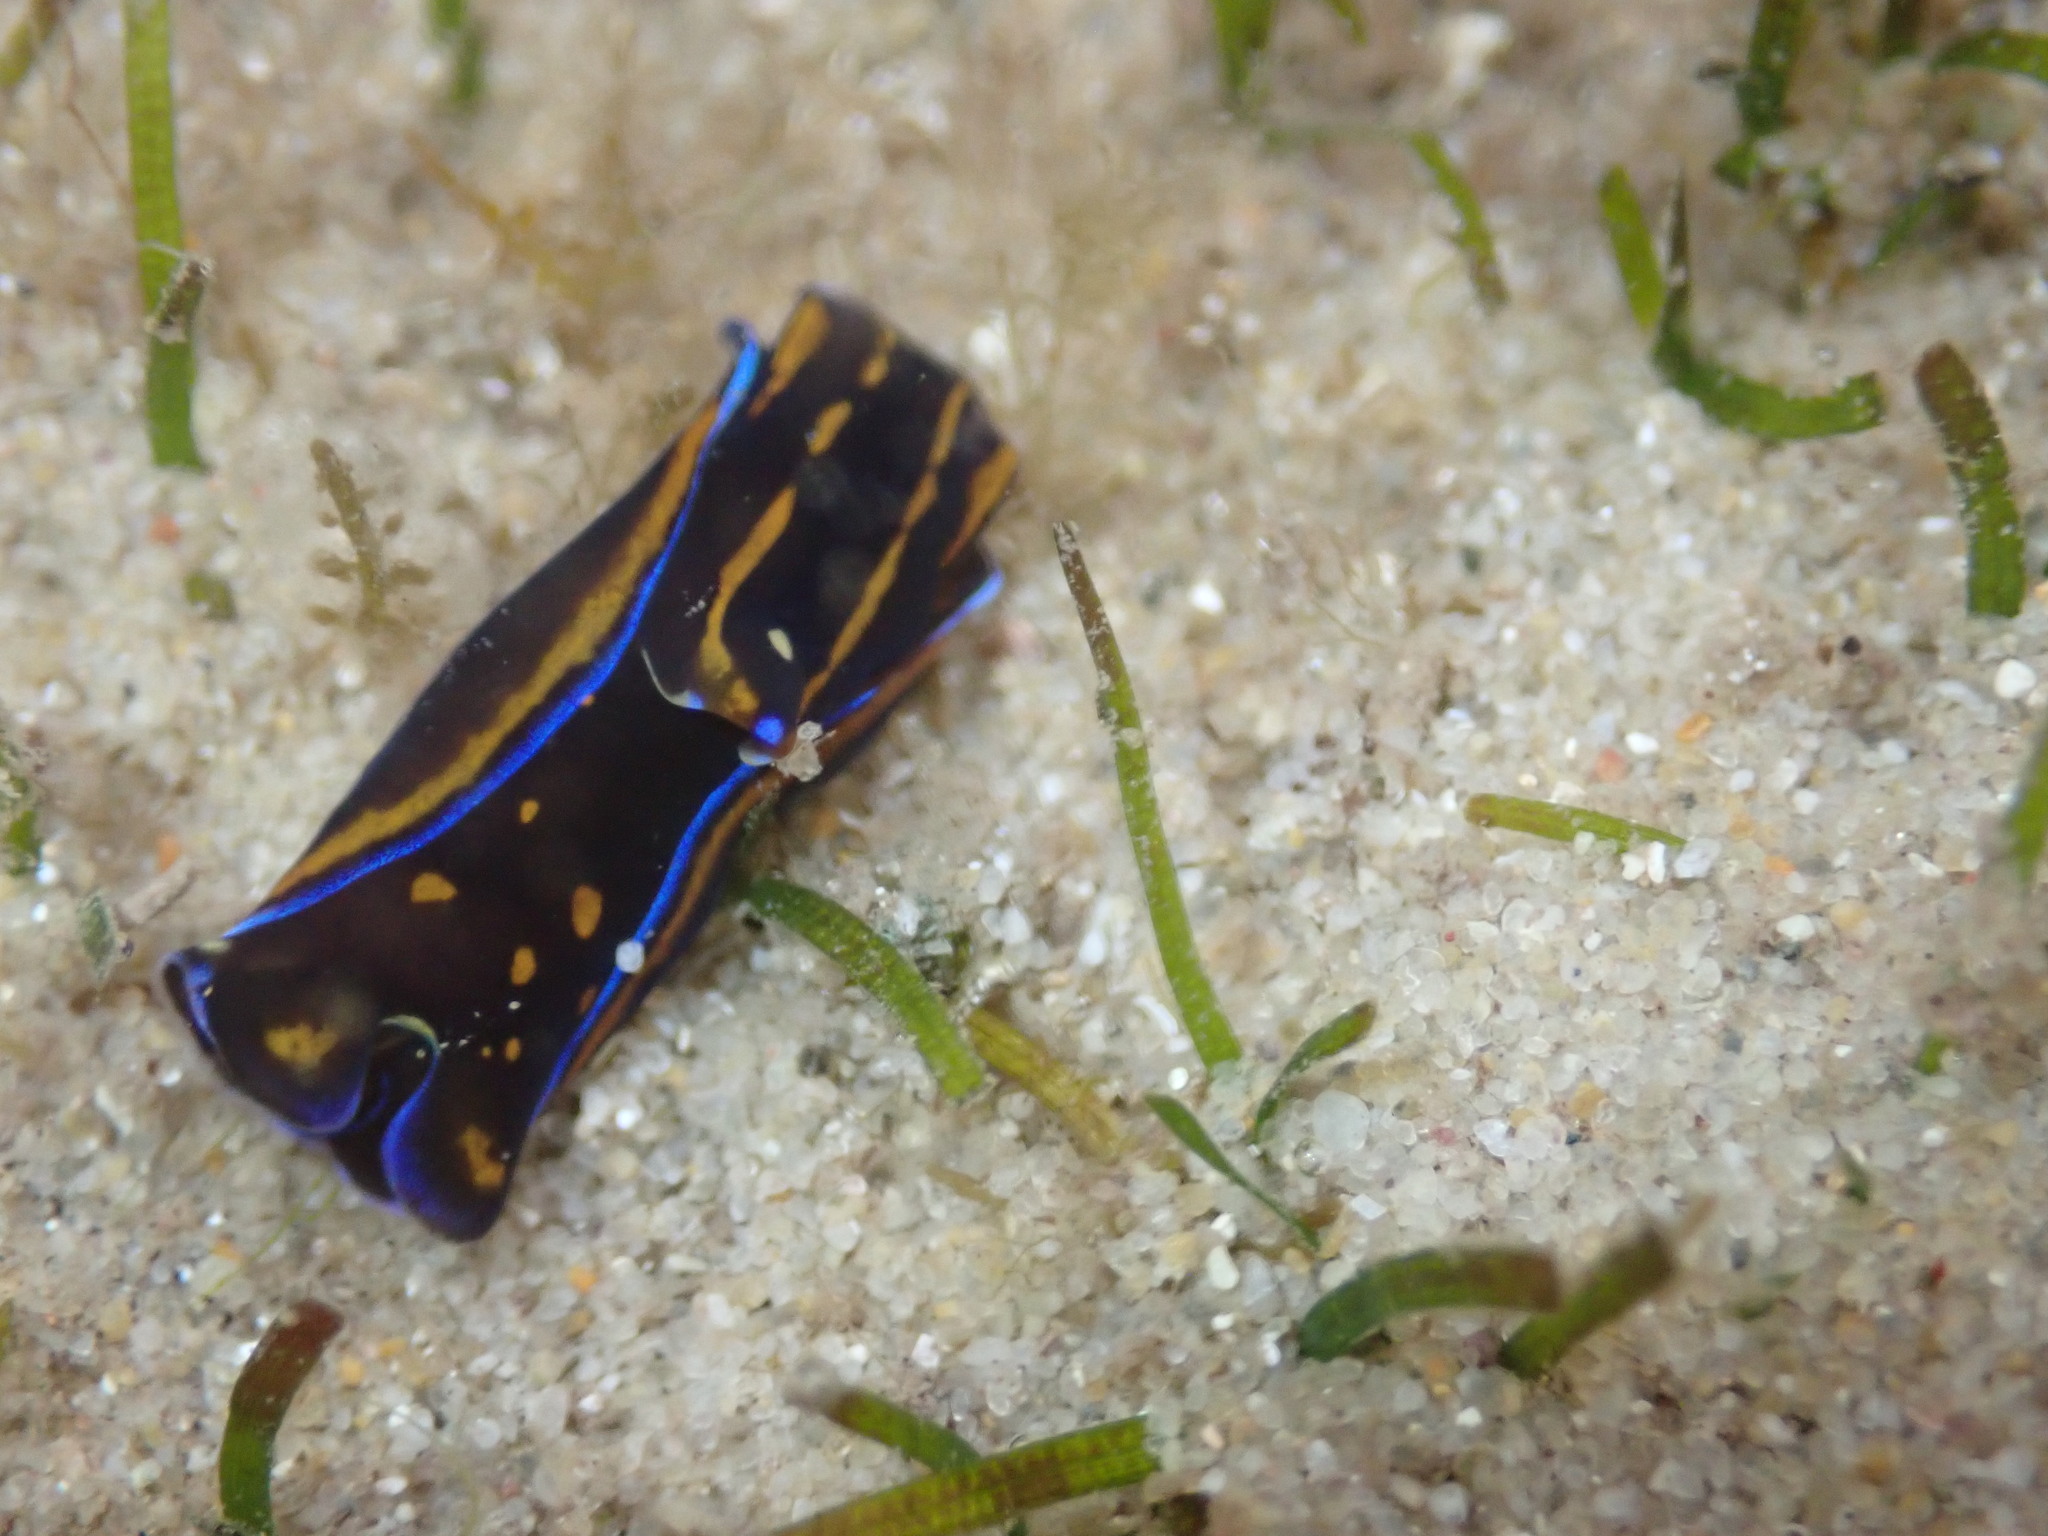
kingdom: Animalia
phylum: Mollusca
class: Gastropoda
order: Cephalaspidea
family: Aglajidae
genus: Philinopsis
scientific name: Philinopsis speciosa
